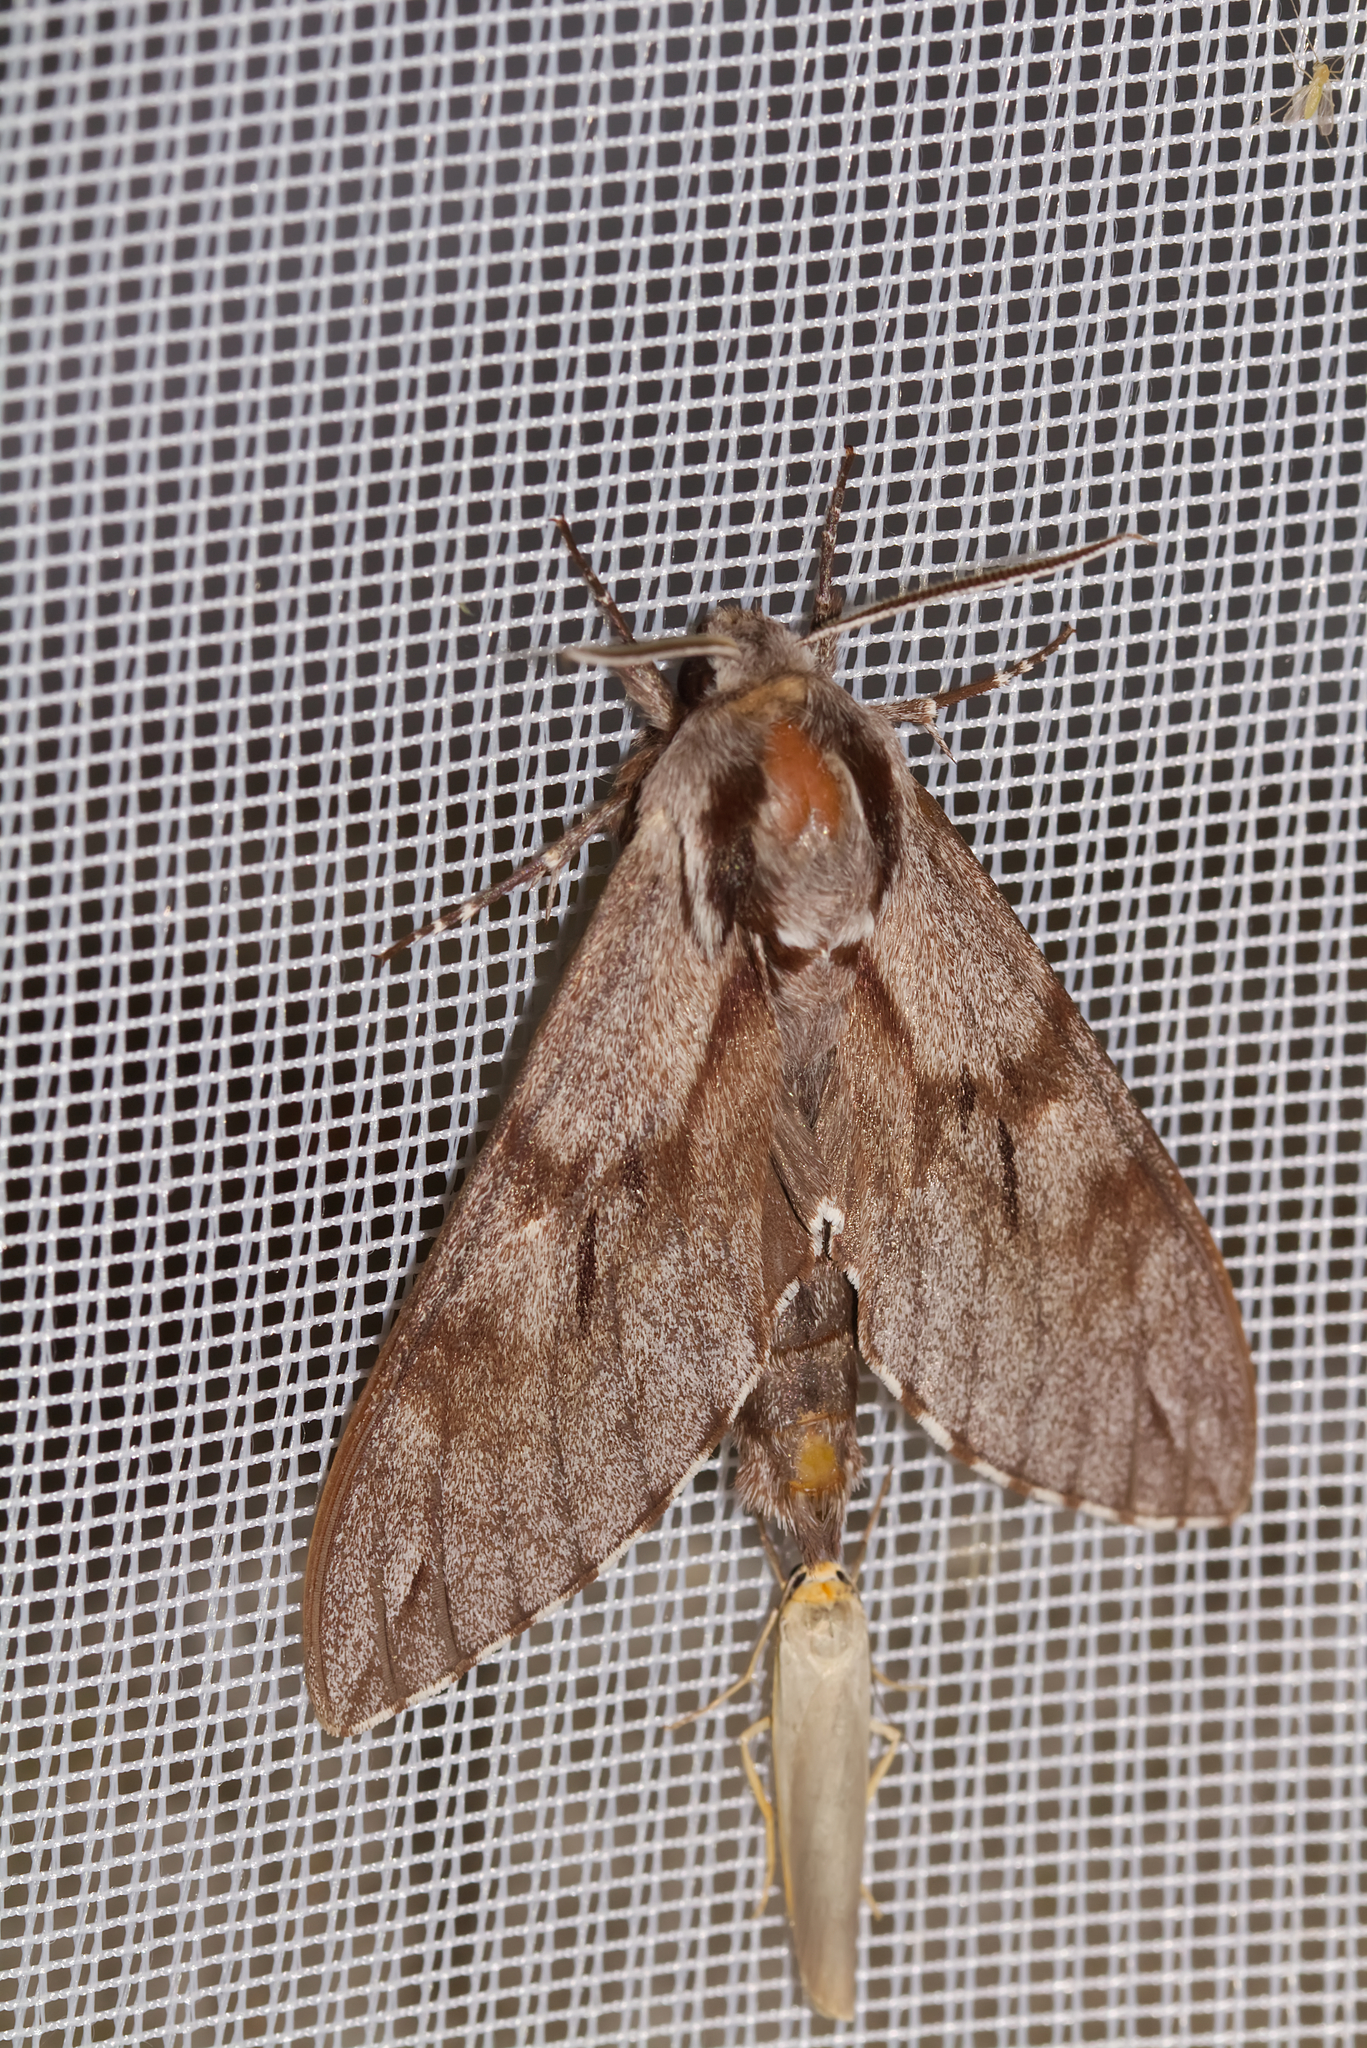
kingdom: Animalia
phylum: Arthropoda
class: Insecta
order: Lepidoptera
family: Sphingidae
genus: Sphinx
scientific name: Sphinx pinastri
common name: Pine hawk-moth
